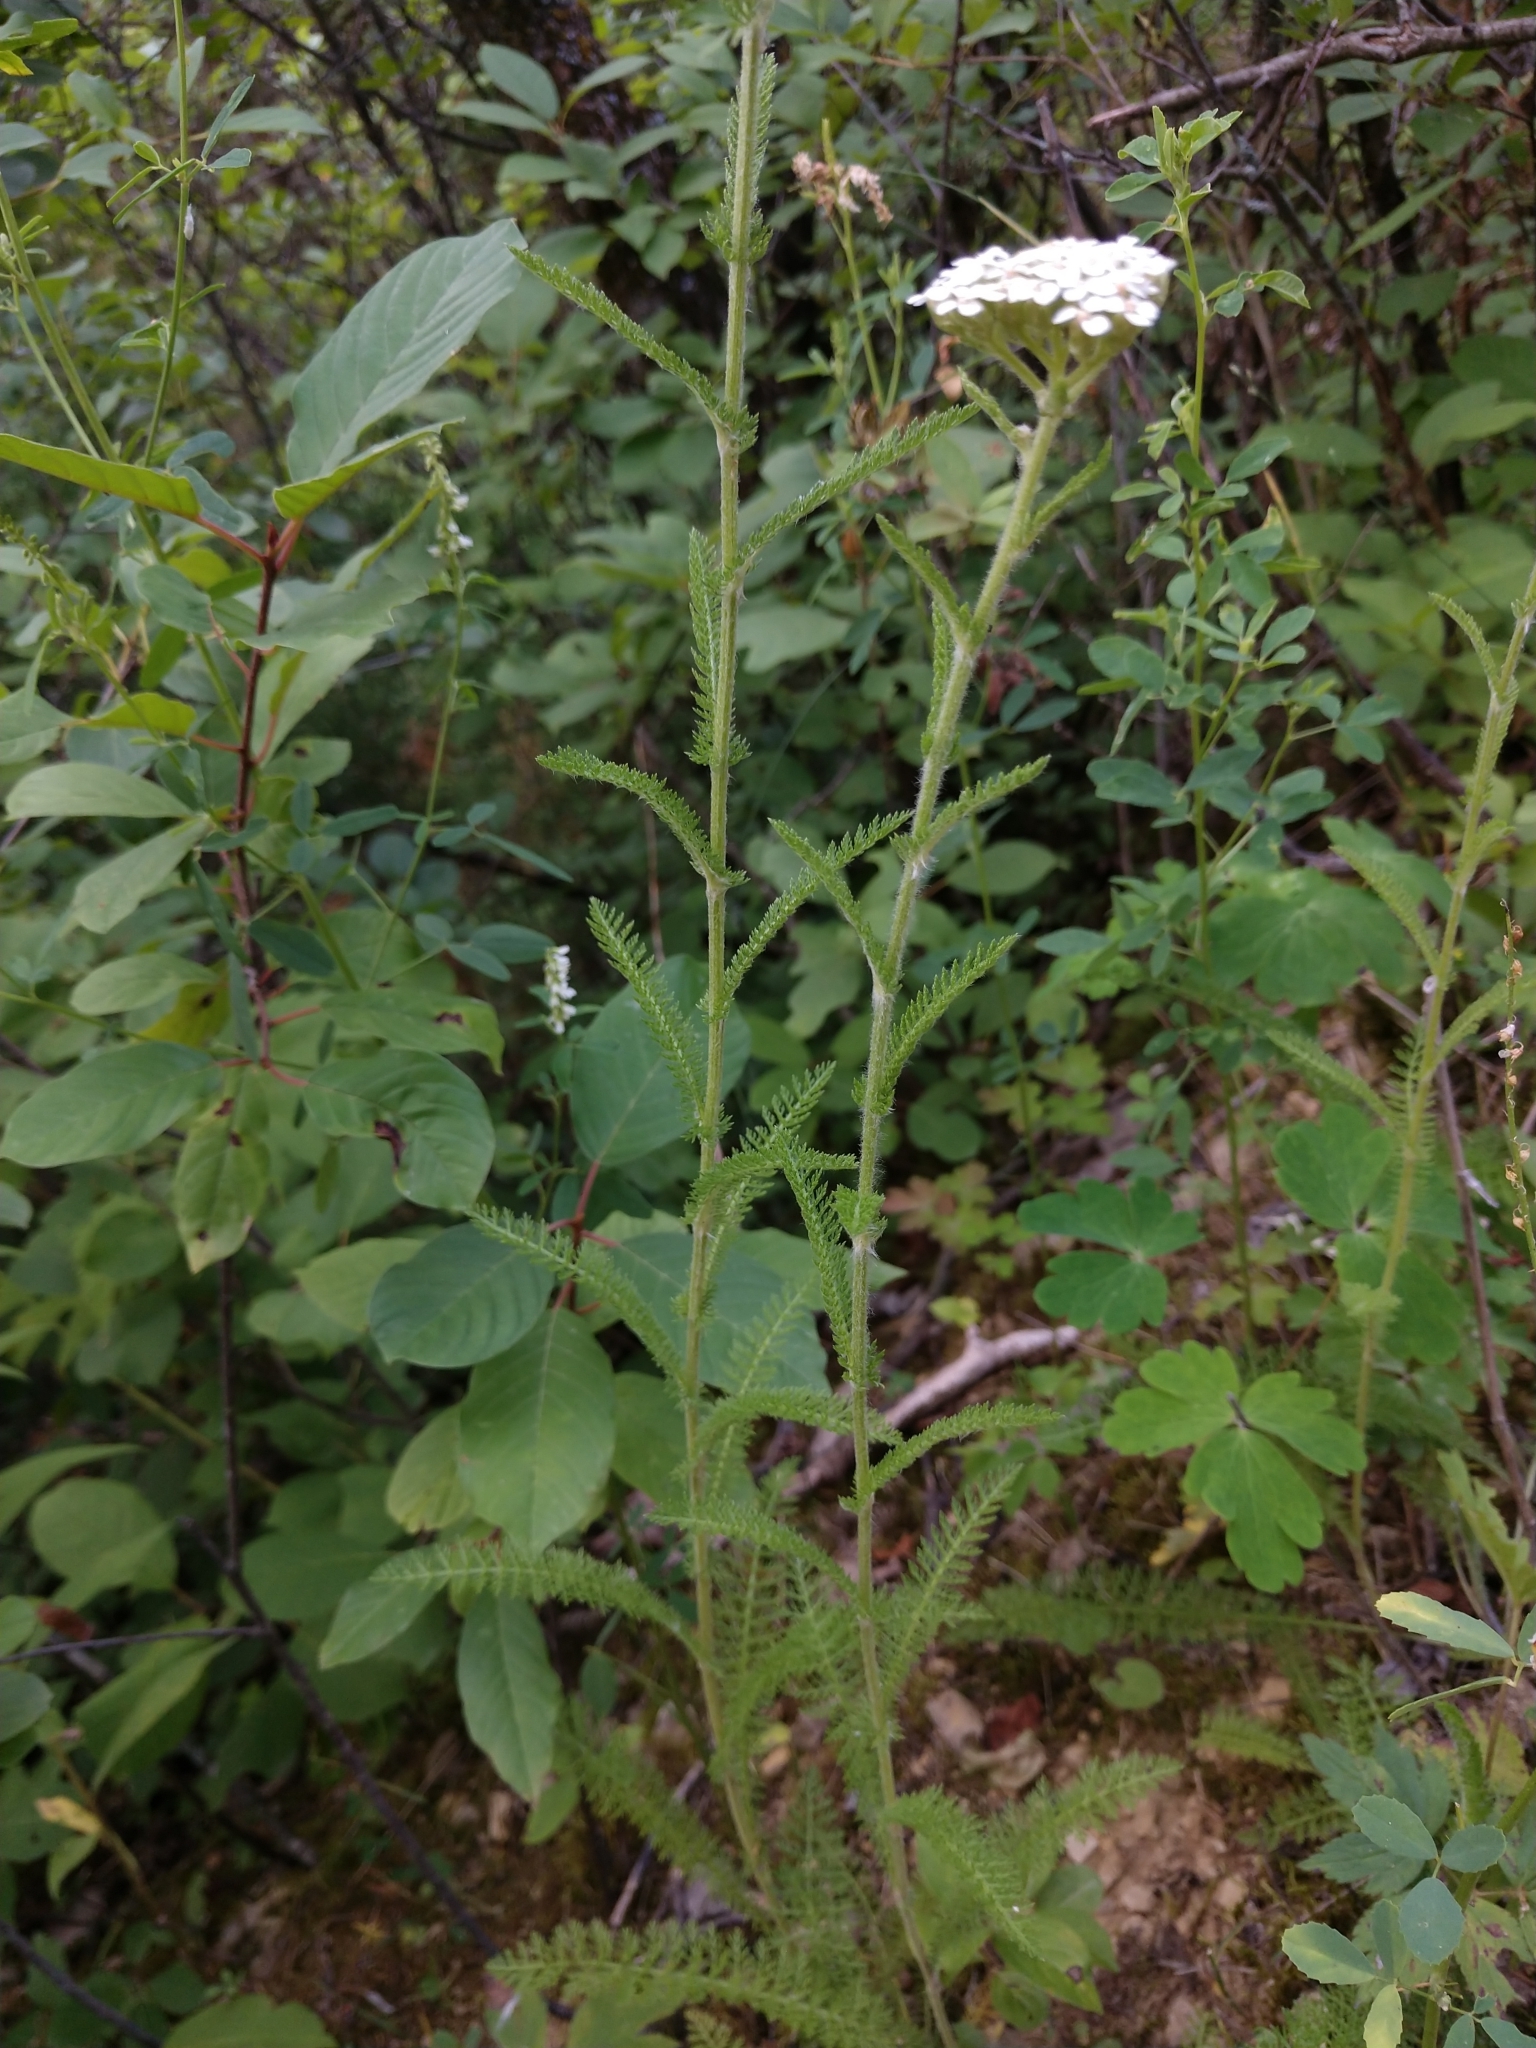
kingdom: Plantae
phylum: Tracheophyta
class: Magnoliopsida
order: Asterales
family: Asteraceae
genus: Achillea
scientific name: Achillea millefolium
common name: Yarrow
